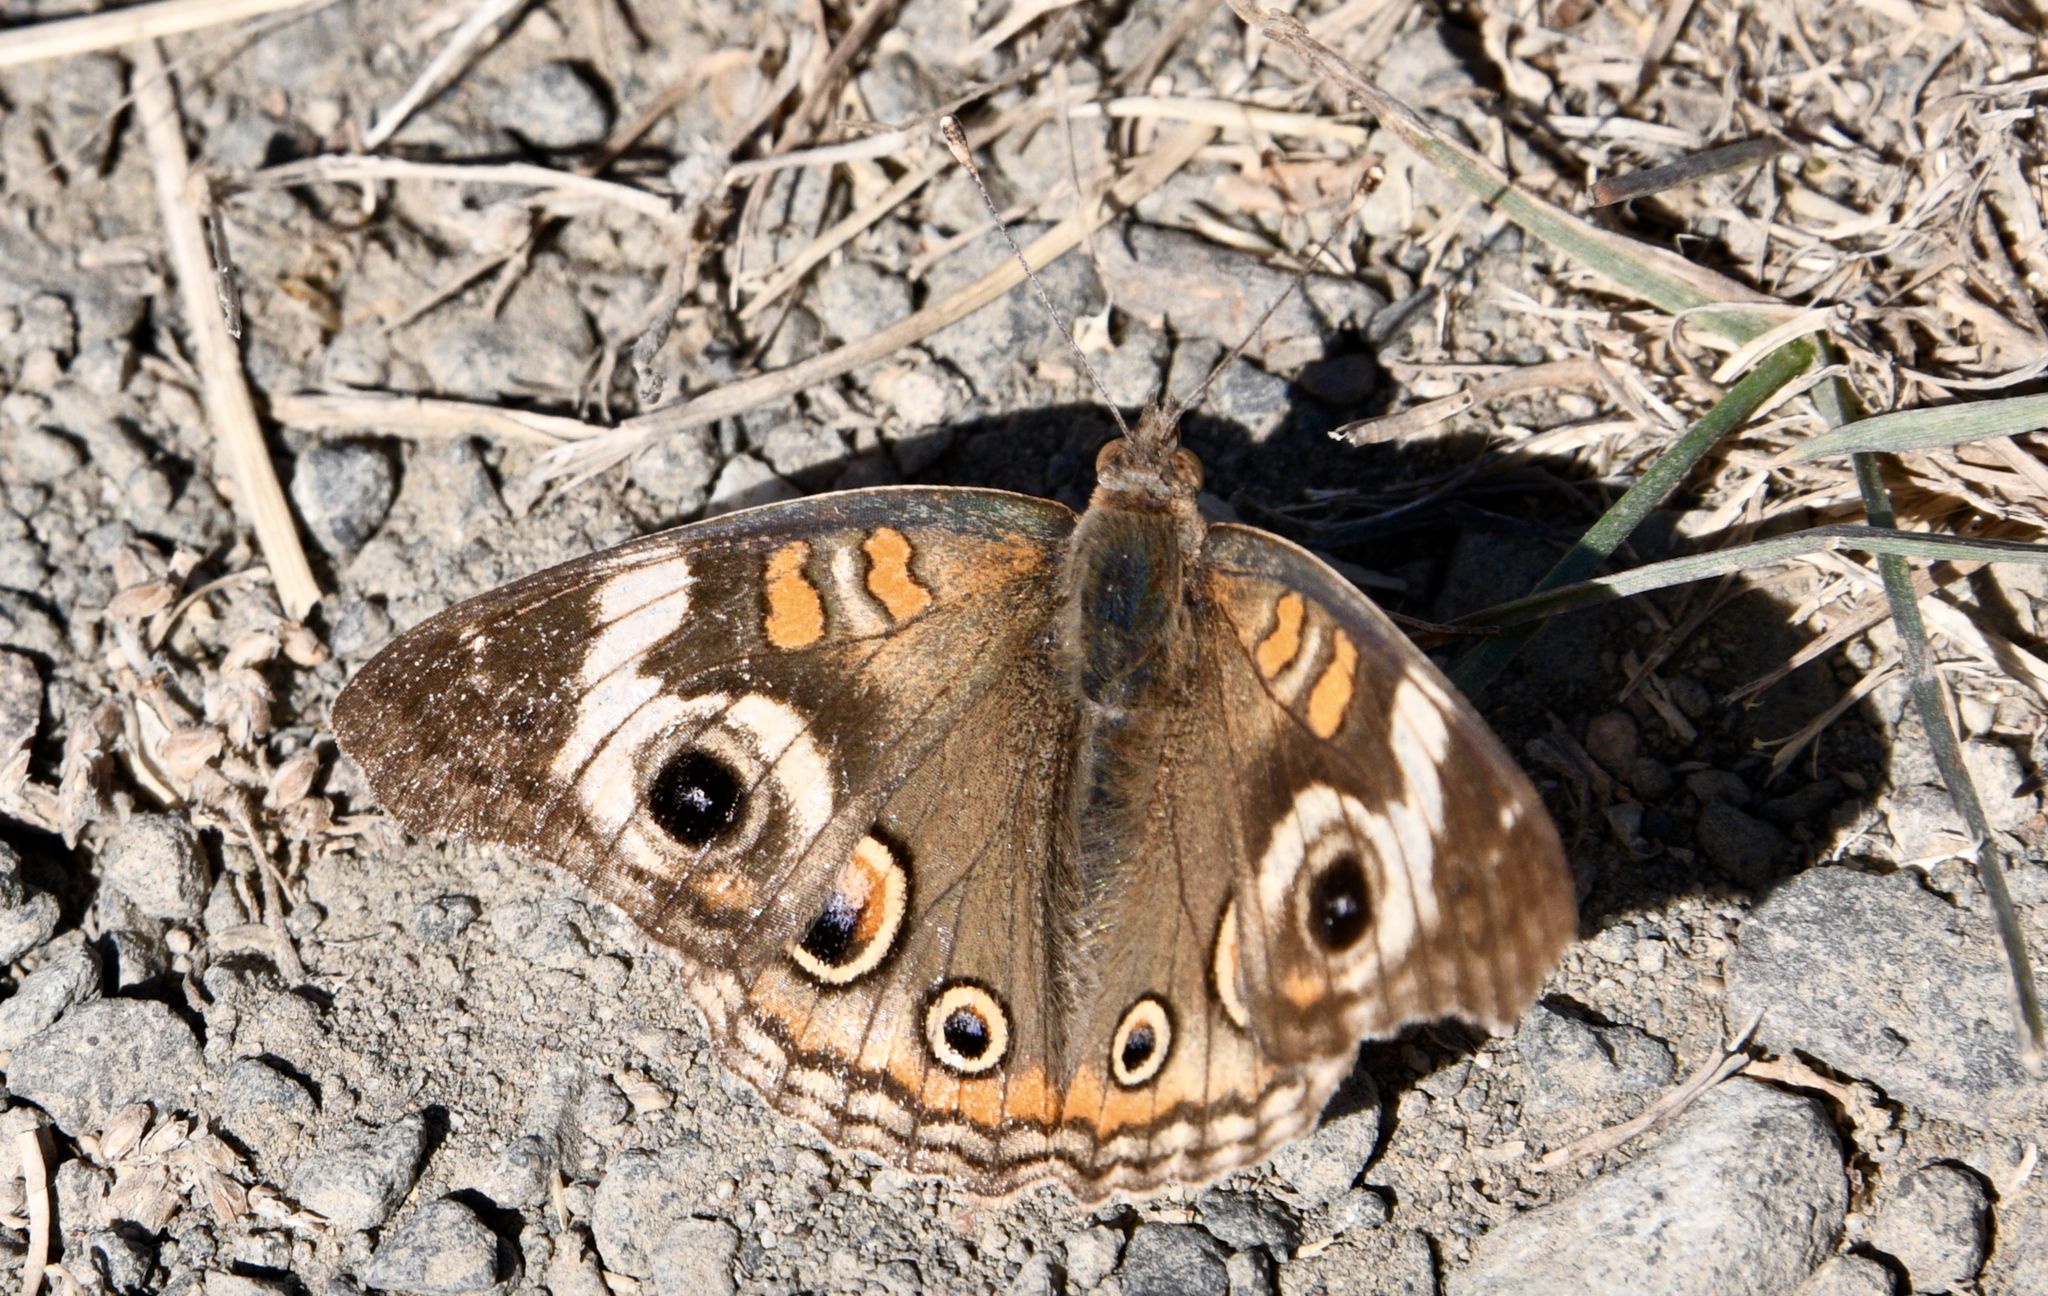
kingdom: Animalia
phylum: Arthropoda
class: Insecta
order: Lepidoptera
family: Nymphalidae
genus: Junonia
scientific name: Junonia grisea
